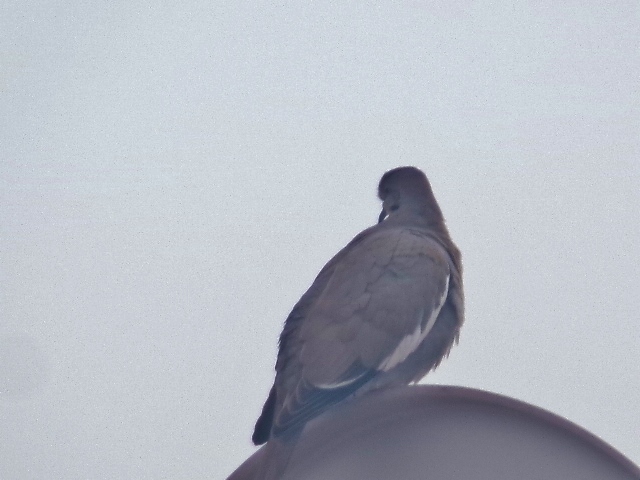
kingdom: Animalia
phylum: Chordata
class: Aves
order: Columbiformes
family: Columbidae
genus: Zenaida
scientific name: Zenaida asiatica
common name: White-winged dove
